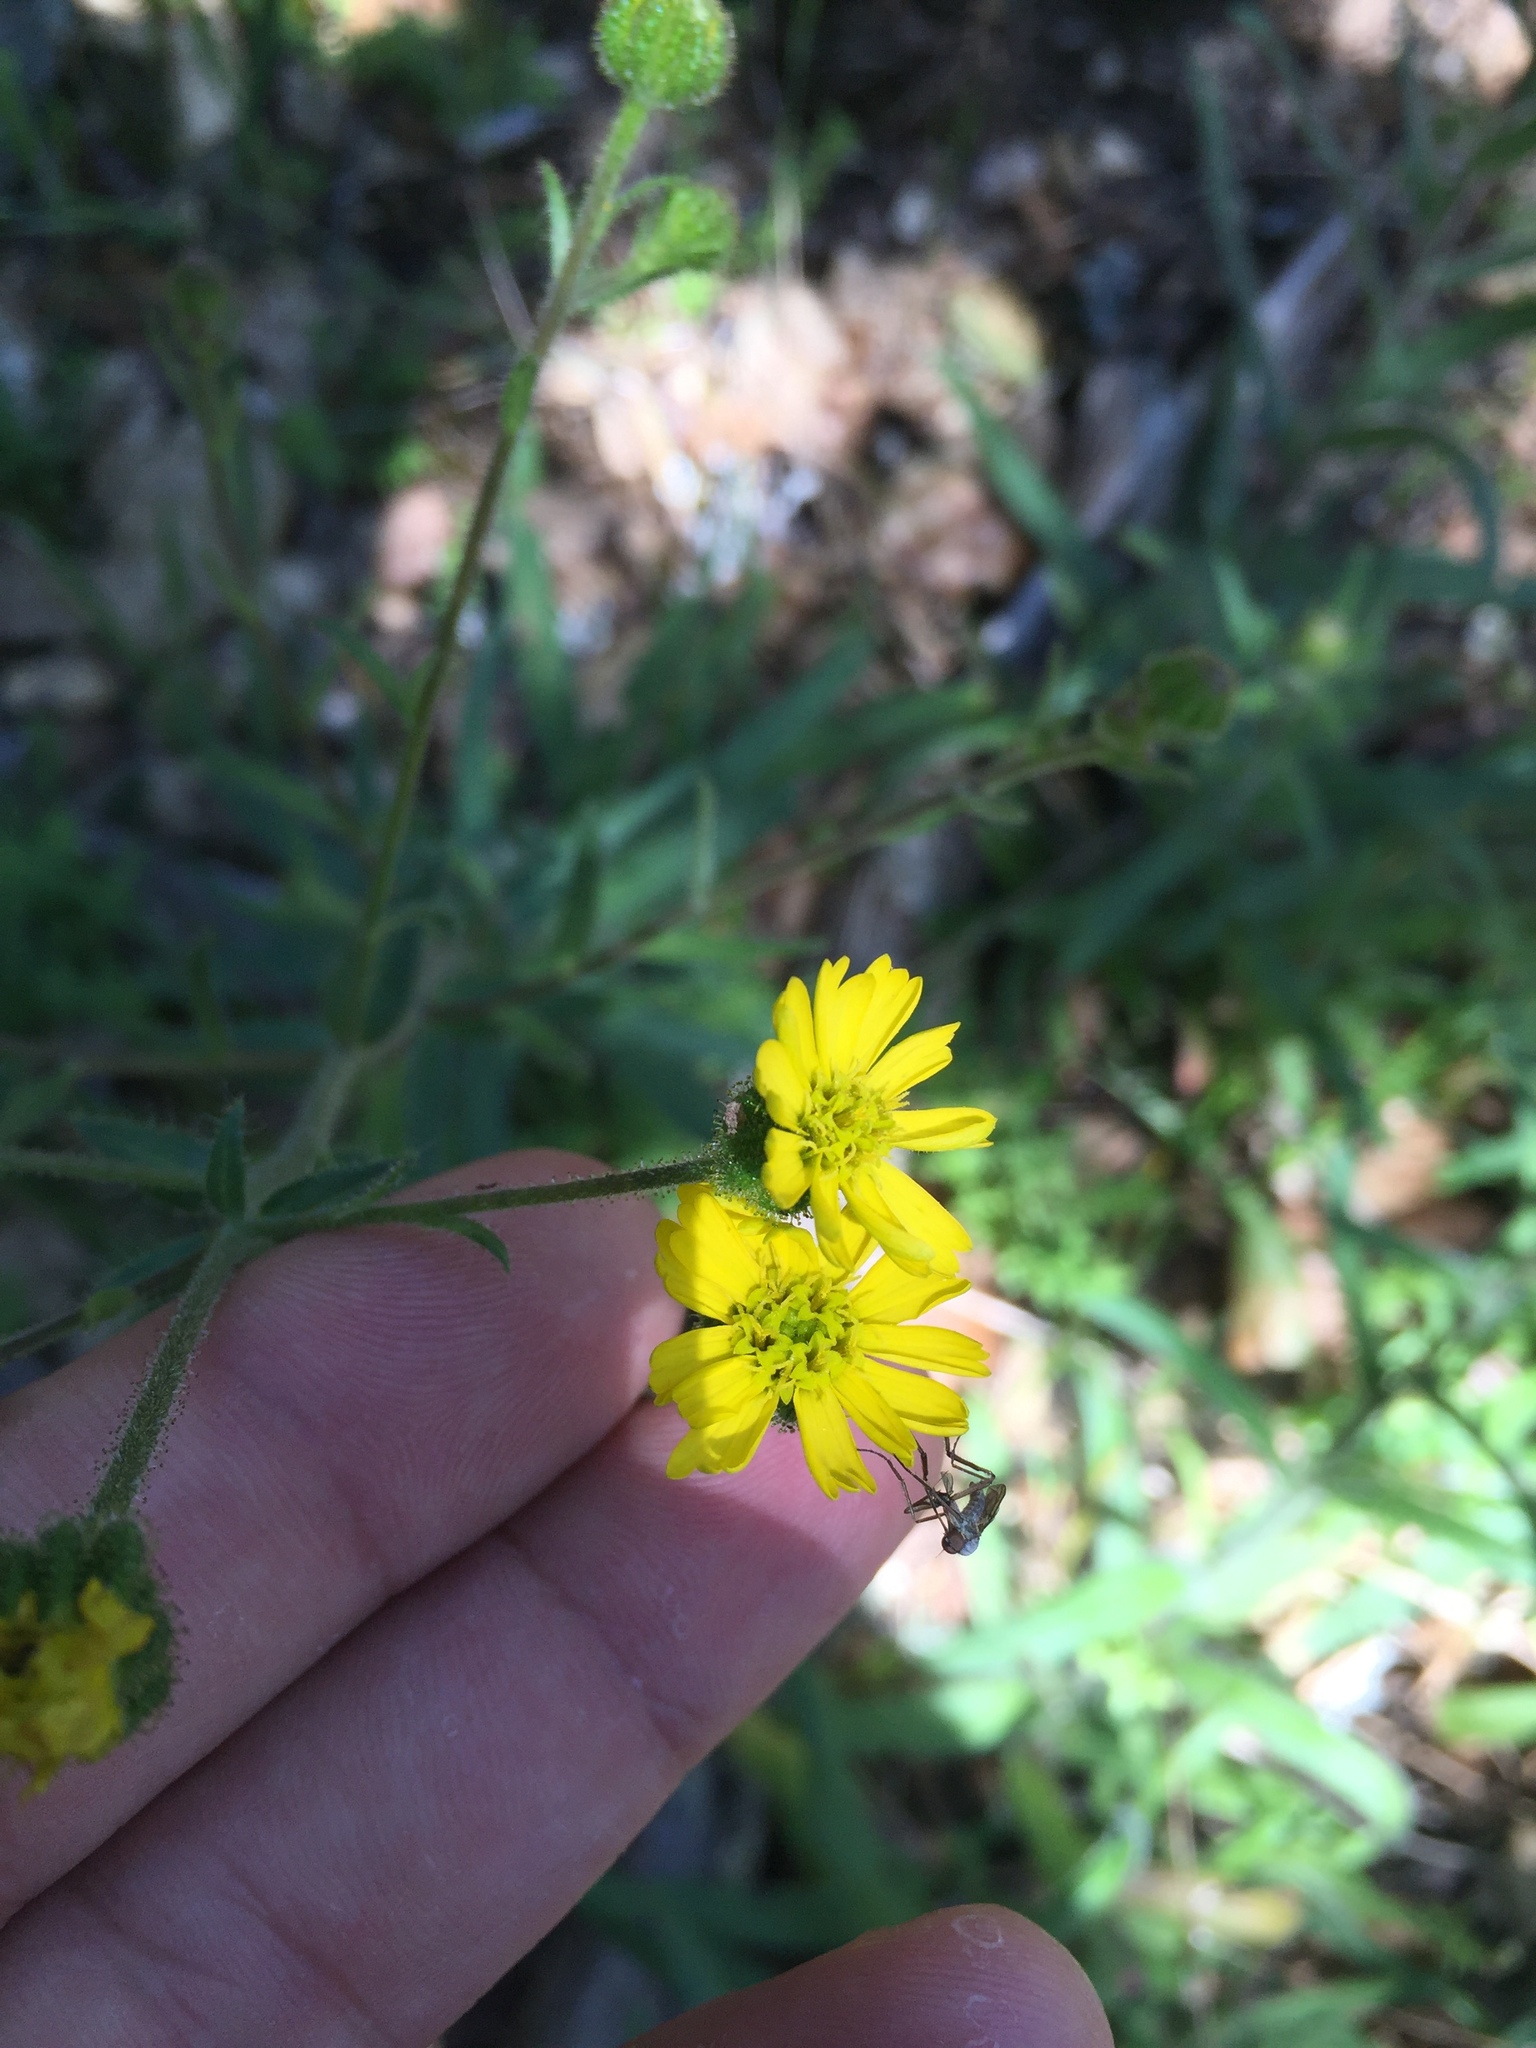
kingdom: Plantae
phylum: Tracheophyta
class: Magnoliopsida
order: Asterales
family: Asteraceae
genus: Anisocarpus
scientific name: Anisocarpus madioides
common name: Woodland madia
